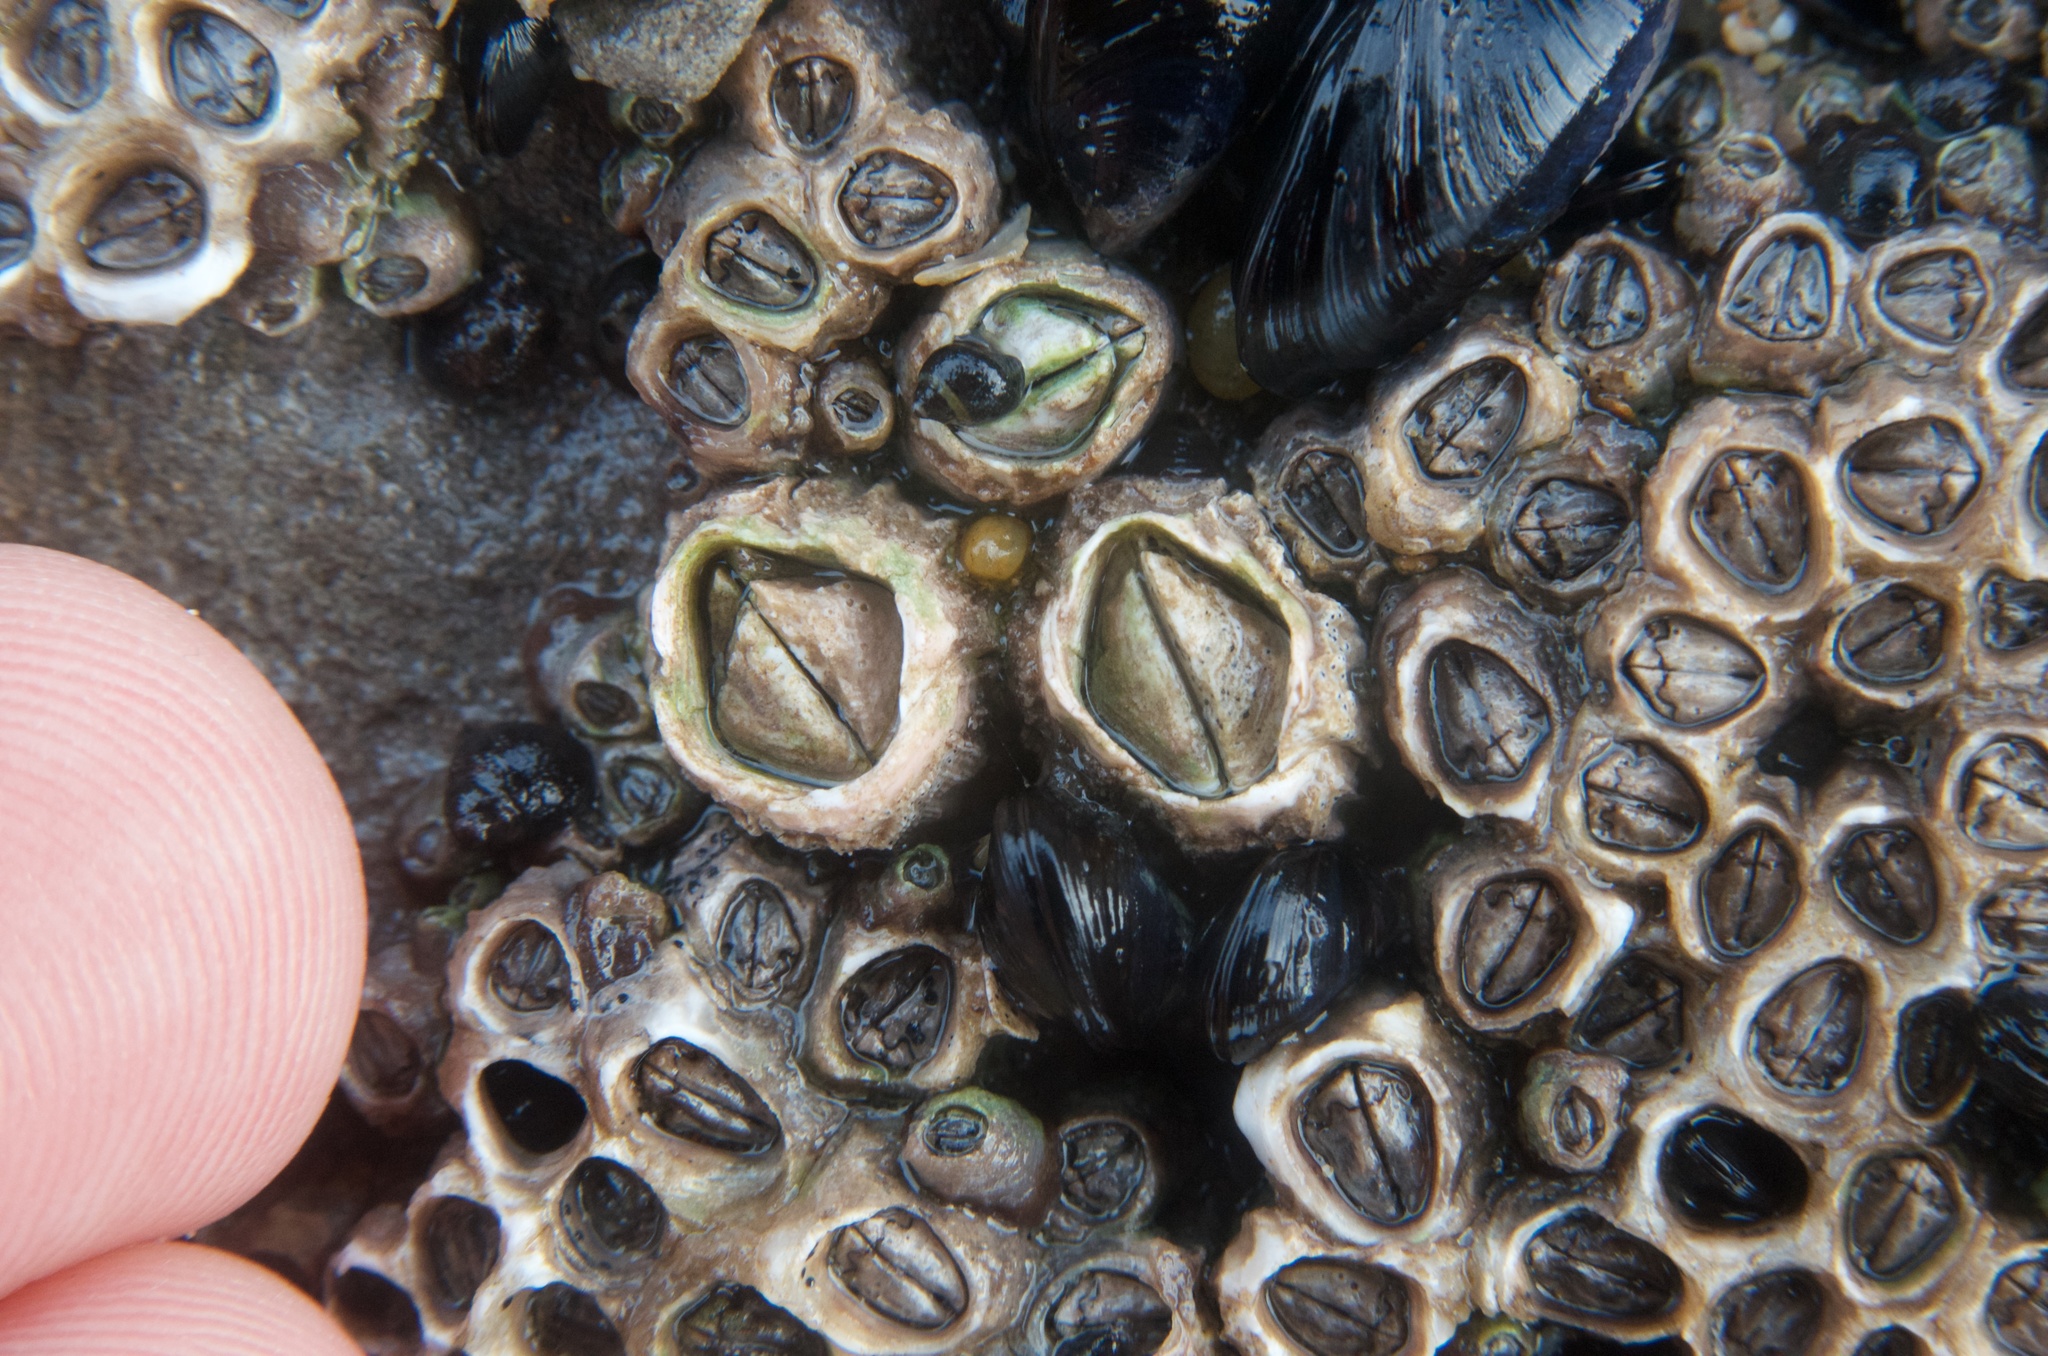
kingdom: Animalia
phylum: Arthropoda
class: Maxillopoda
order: Sessilia
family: Chthamalidae
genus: Chamaesipho
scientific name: Chamaesipho columna
